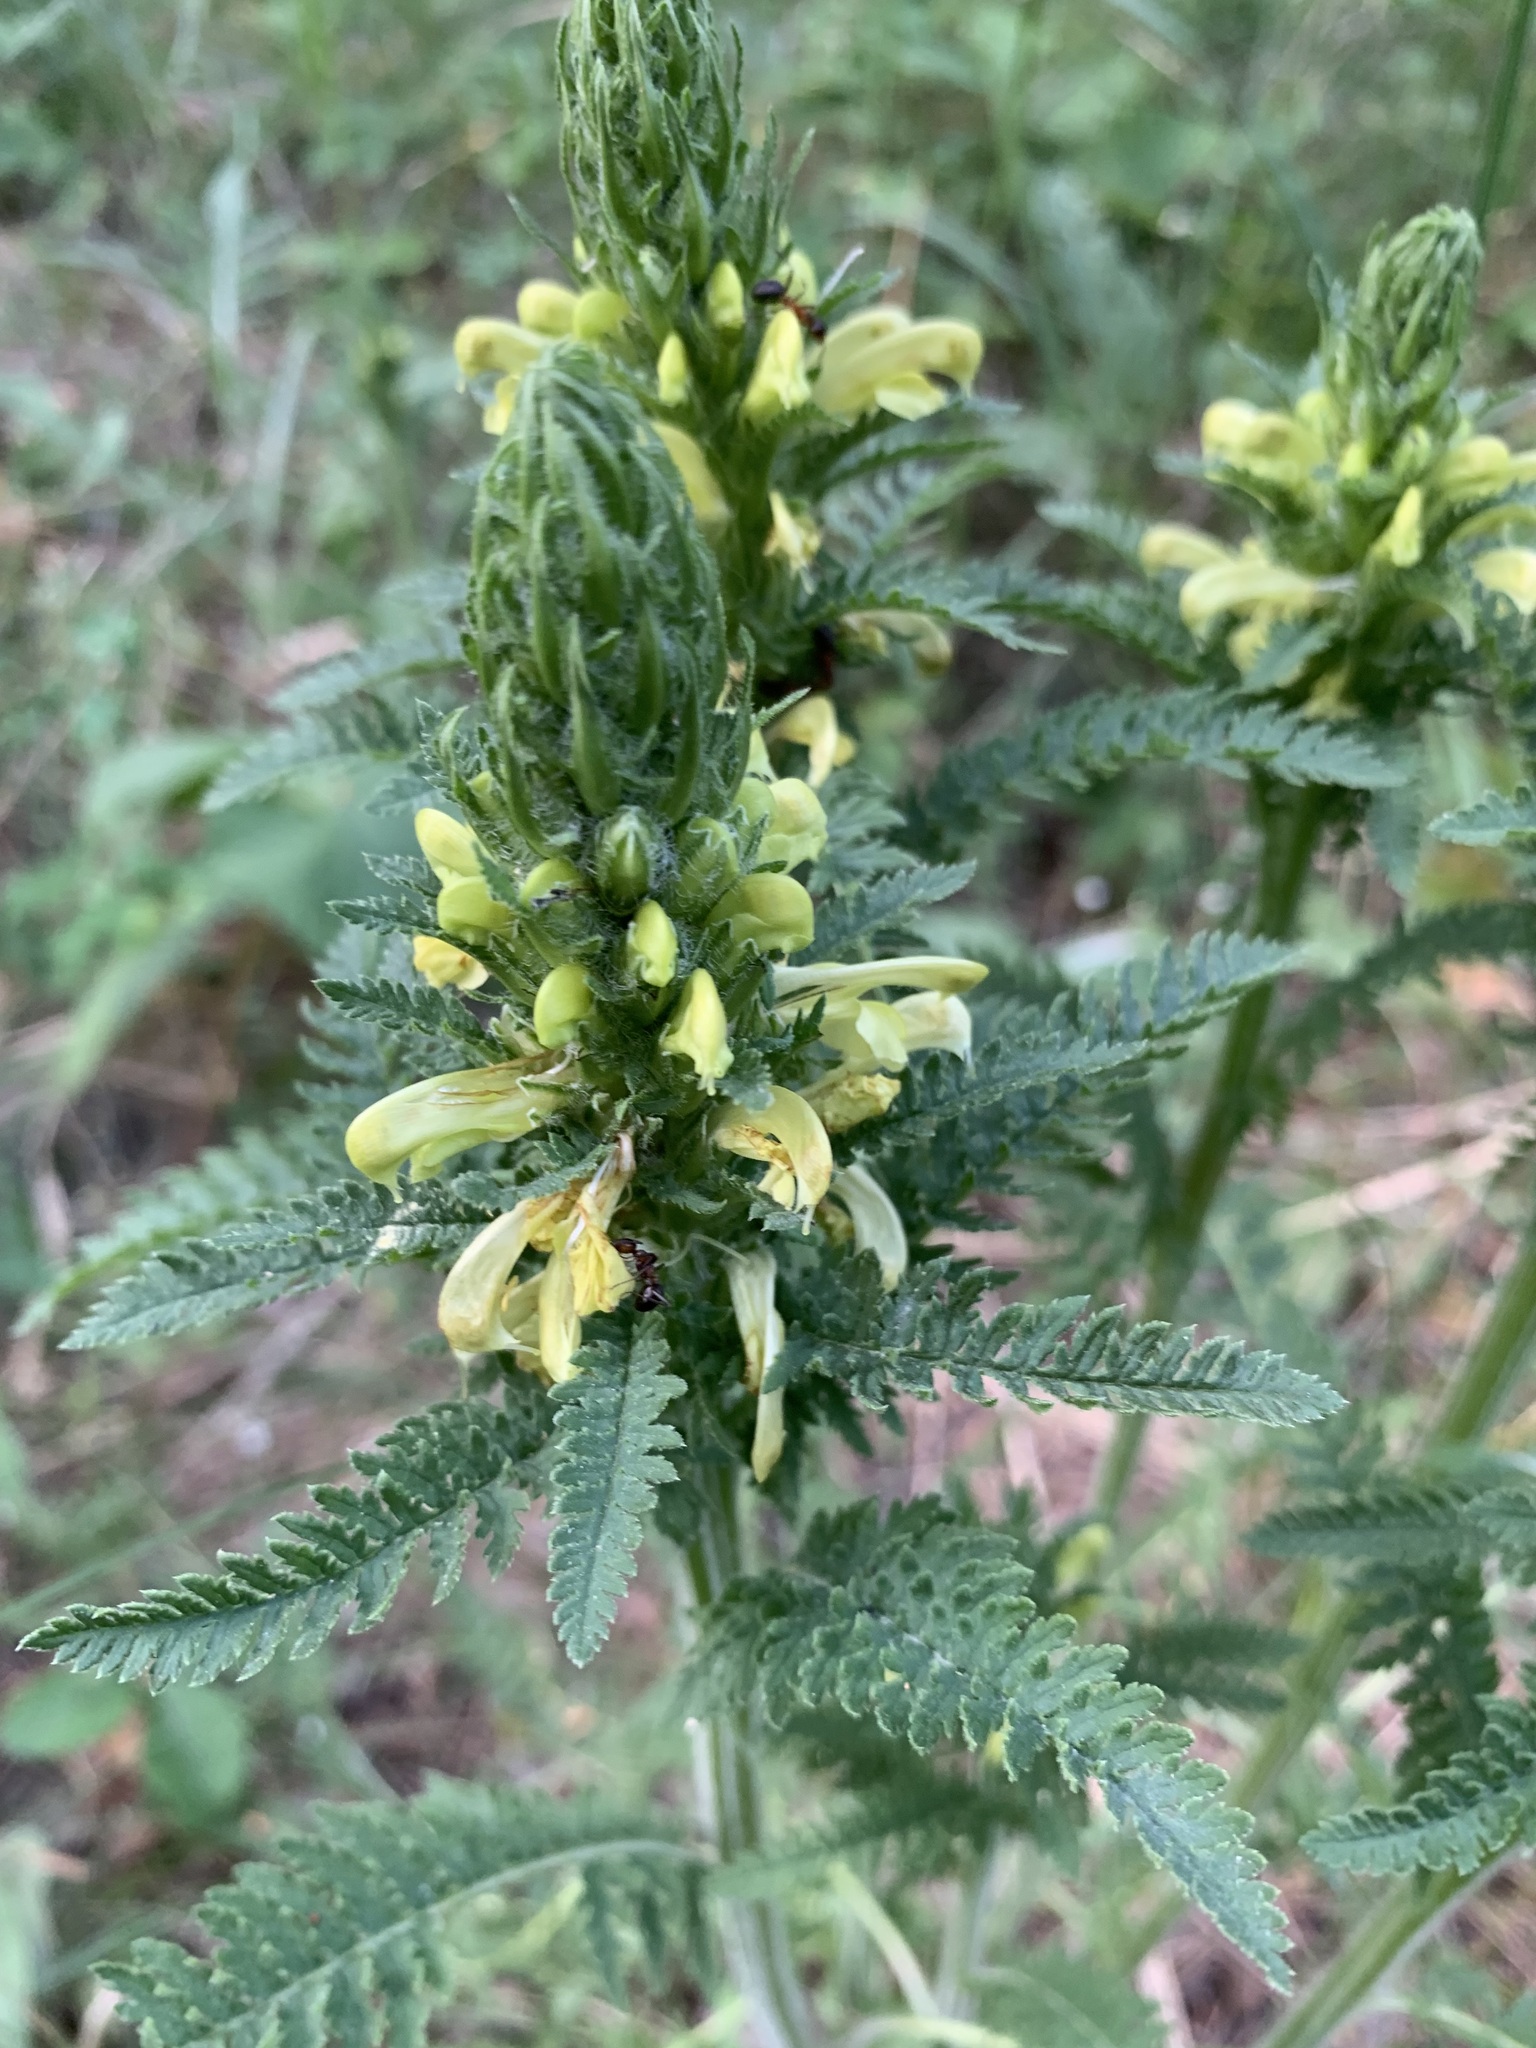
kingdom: Plantae
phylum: Tracheophyta
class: Magnoliopsida
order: Lamiales
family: Orobanchaceae
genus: Pedicularis
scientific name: Pedicularis kaufmannii
